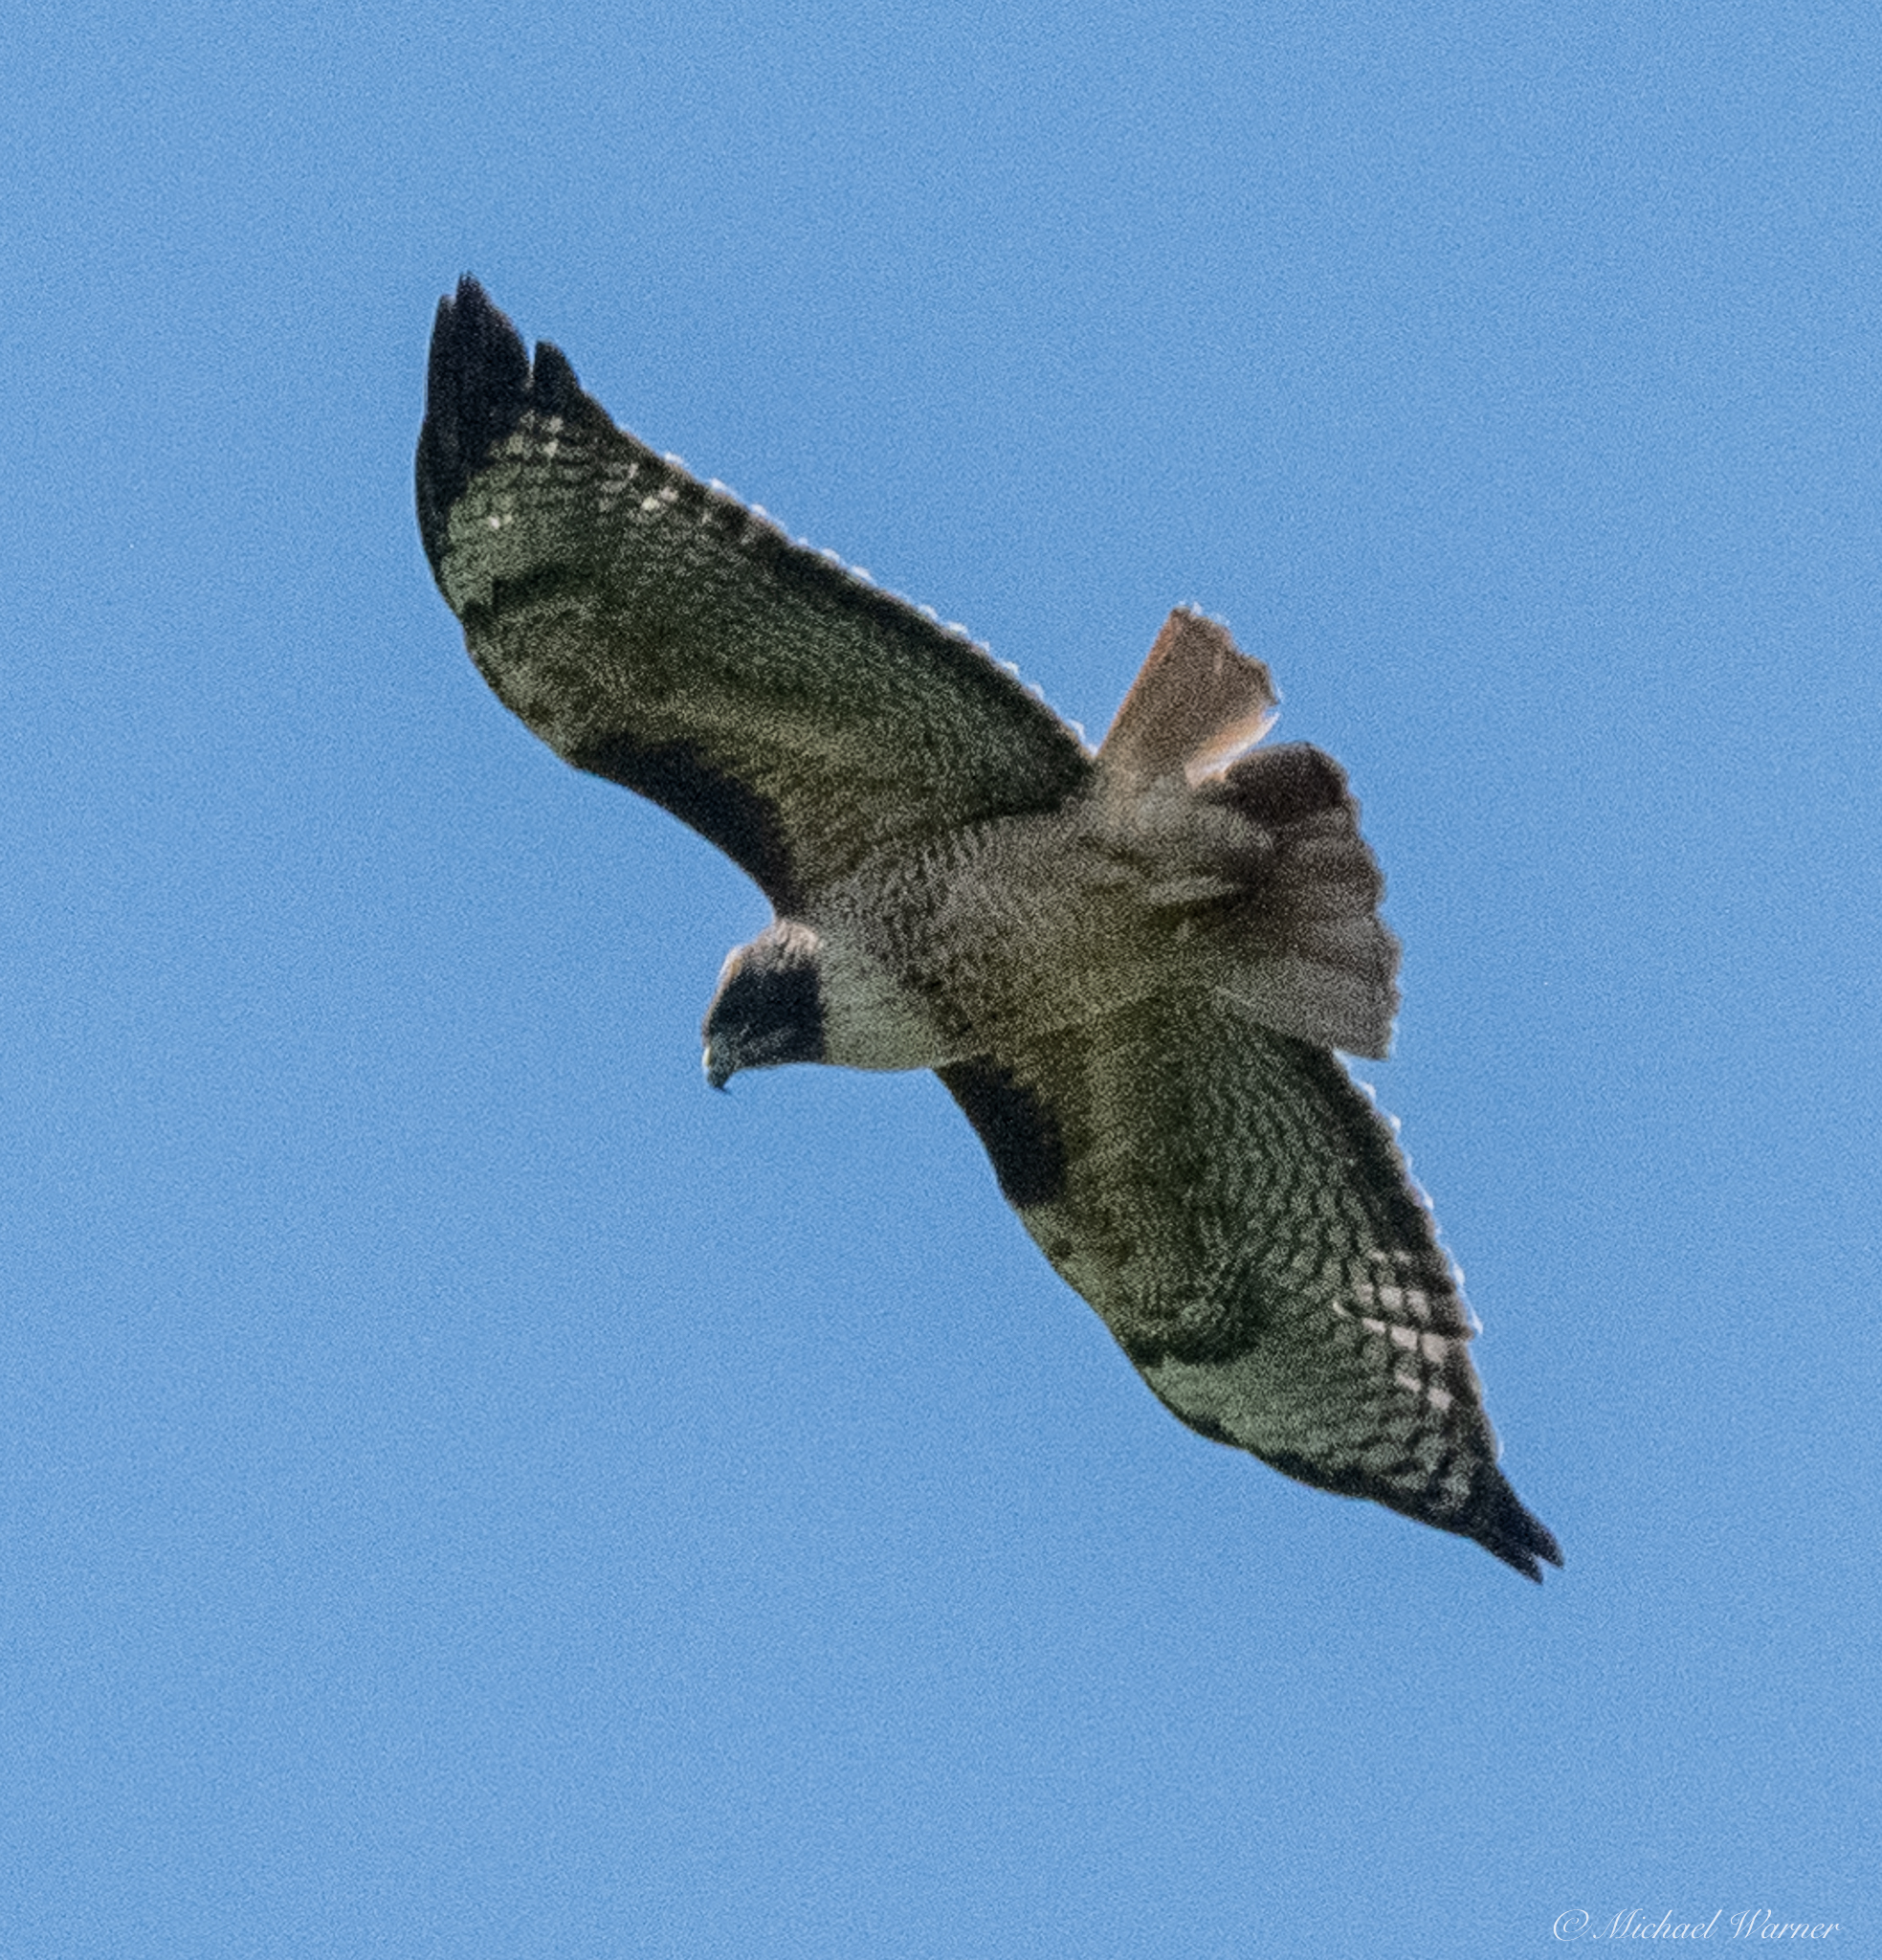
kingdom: Animalia
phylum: Chordata
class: Aves
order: Accipitriformes
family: Accipitridae
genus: Buteo
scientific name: Buteo jamaicensis
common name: Red-tailed hawk
